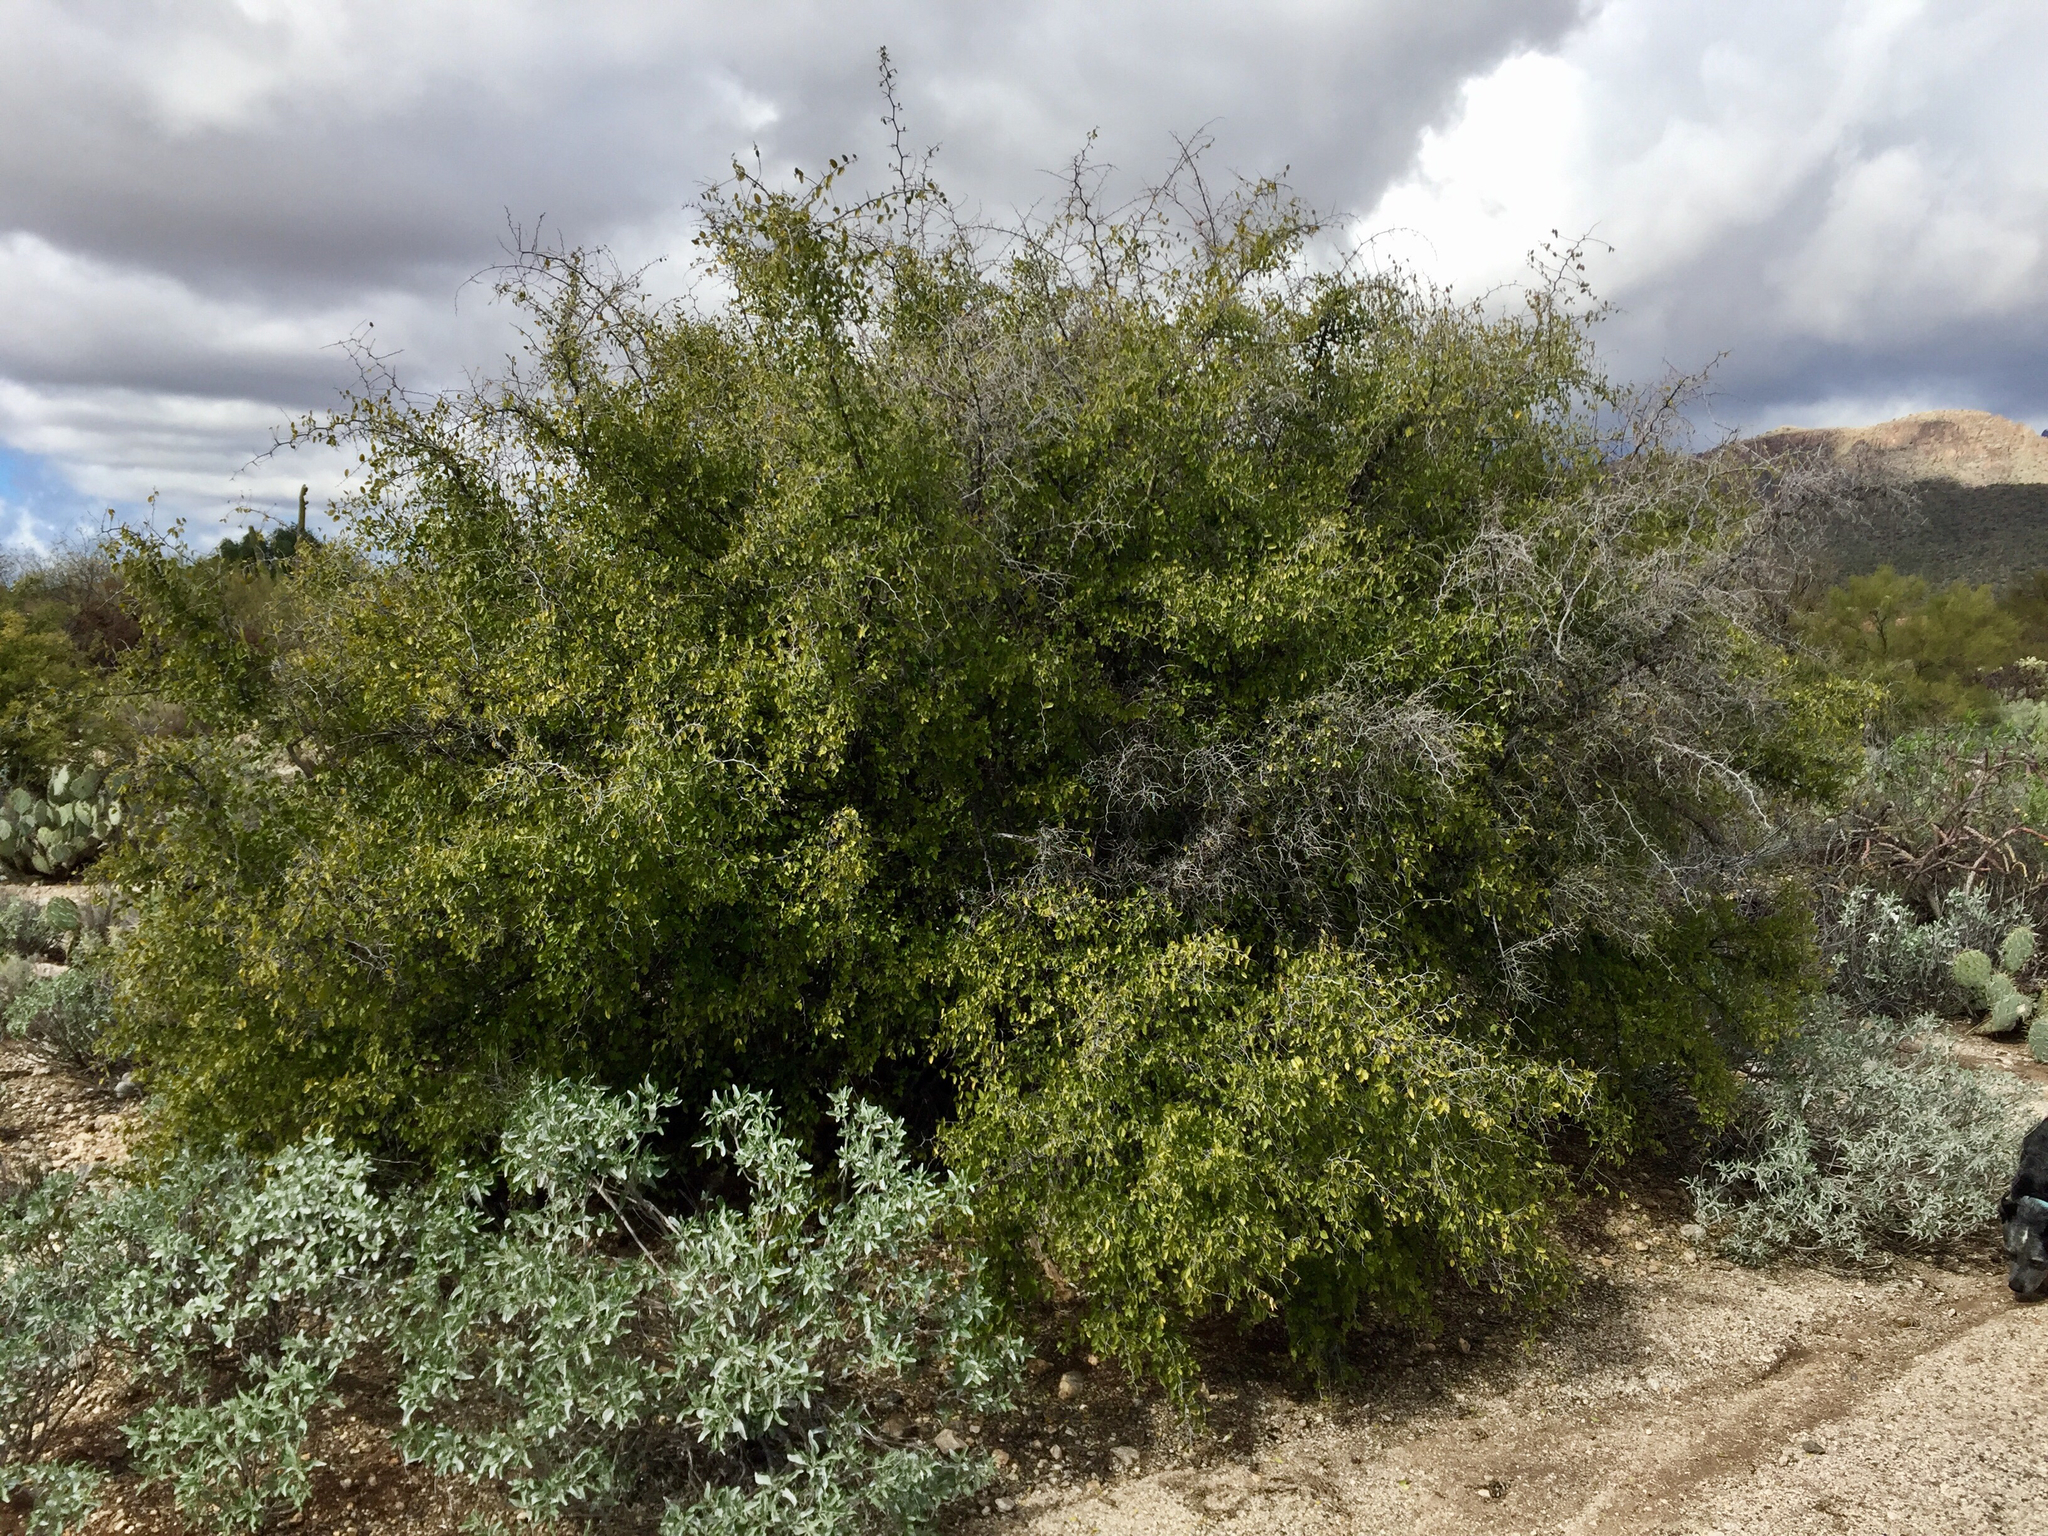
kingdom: Plantae
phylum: Tracheophyta
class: Magnoliopsida
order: Rosales
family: Cannabaceae
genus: Celtis
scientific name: Celtis pallida
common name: Desert hackberry
